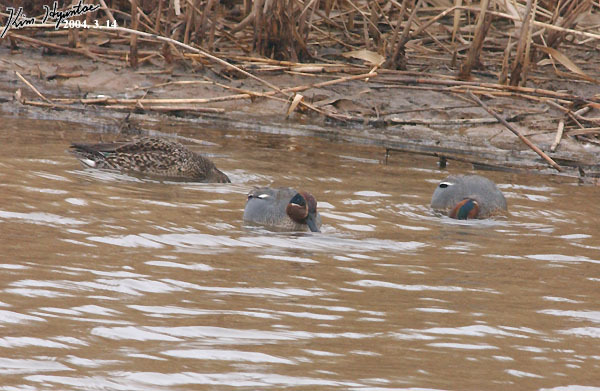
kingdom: Animalia
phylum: Chordata
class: Aves
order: Anseriformes
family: Anatidae
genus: Anas
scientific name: Anas crecca
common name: Eurasian teal
